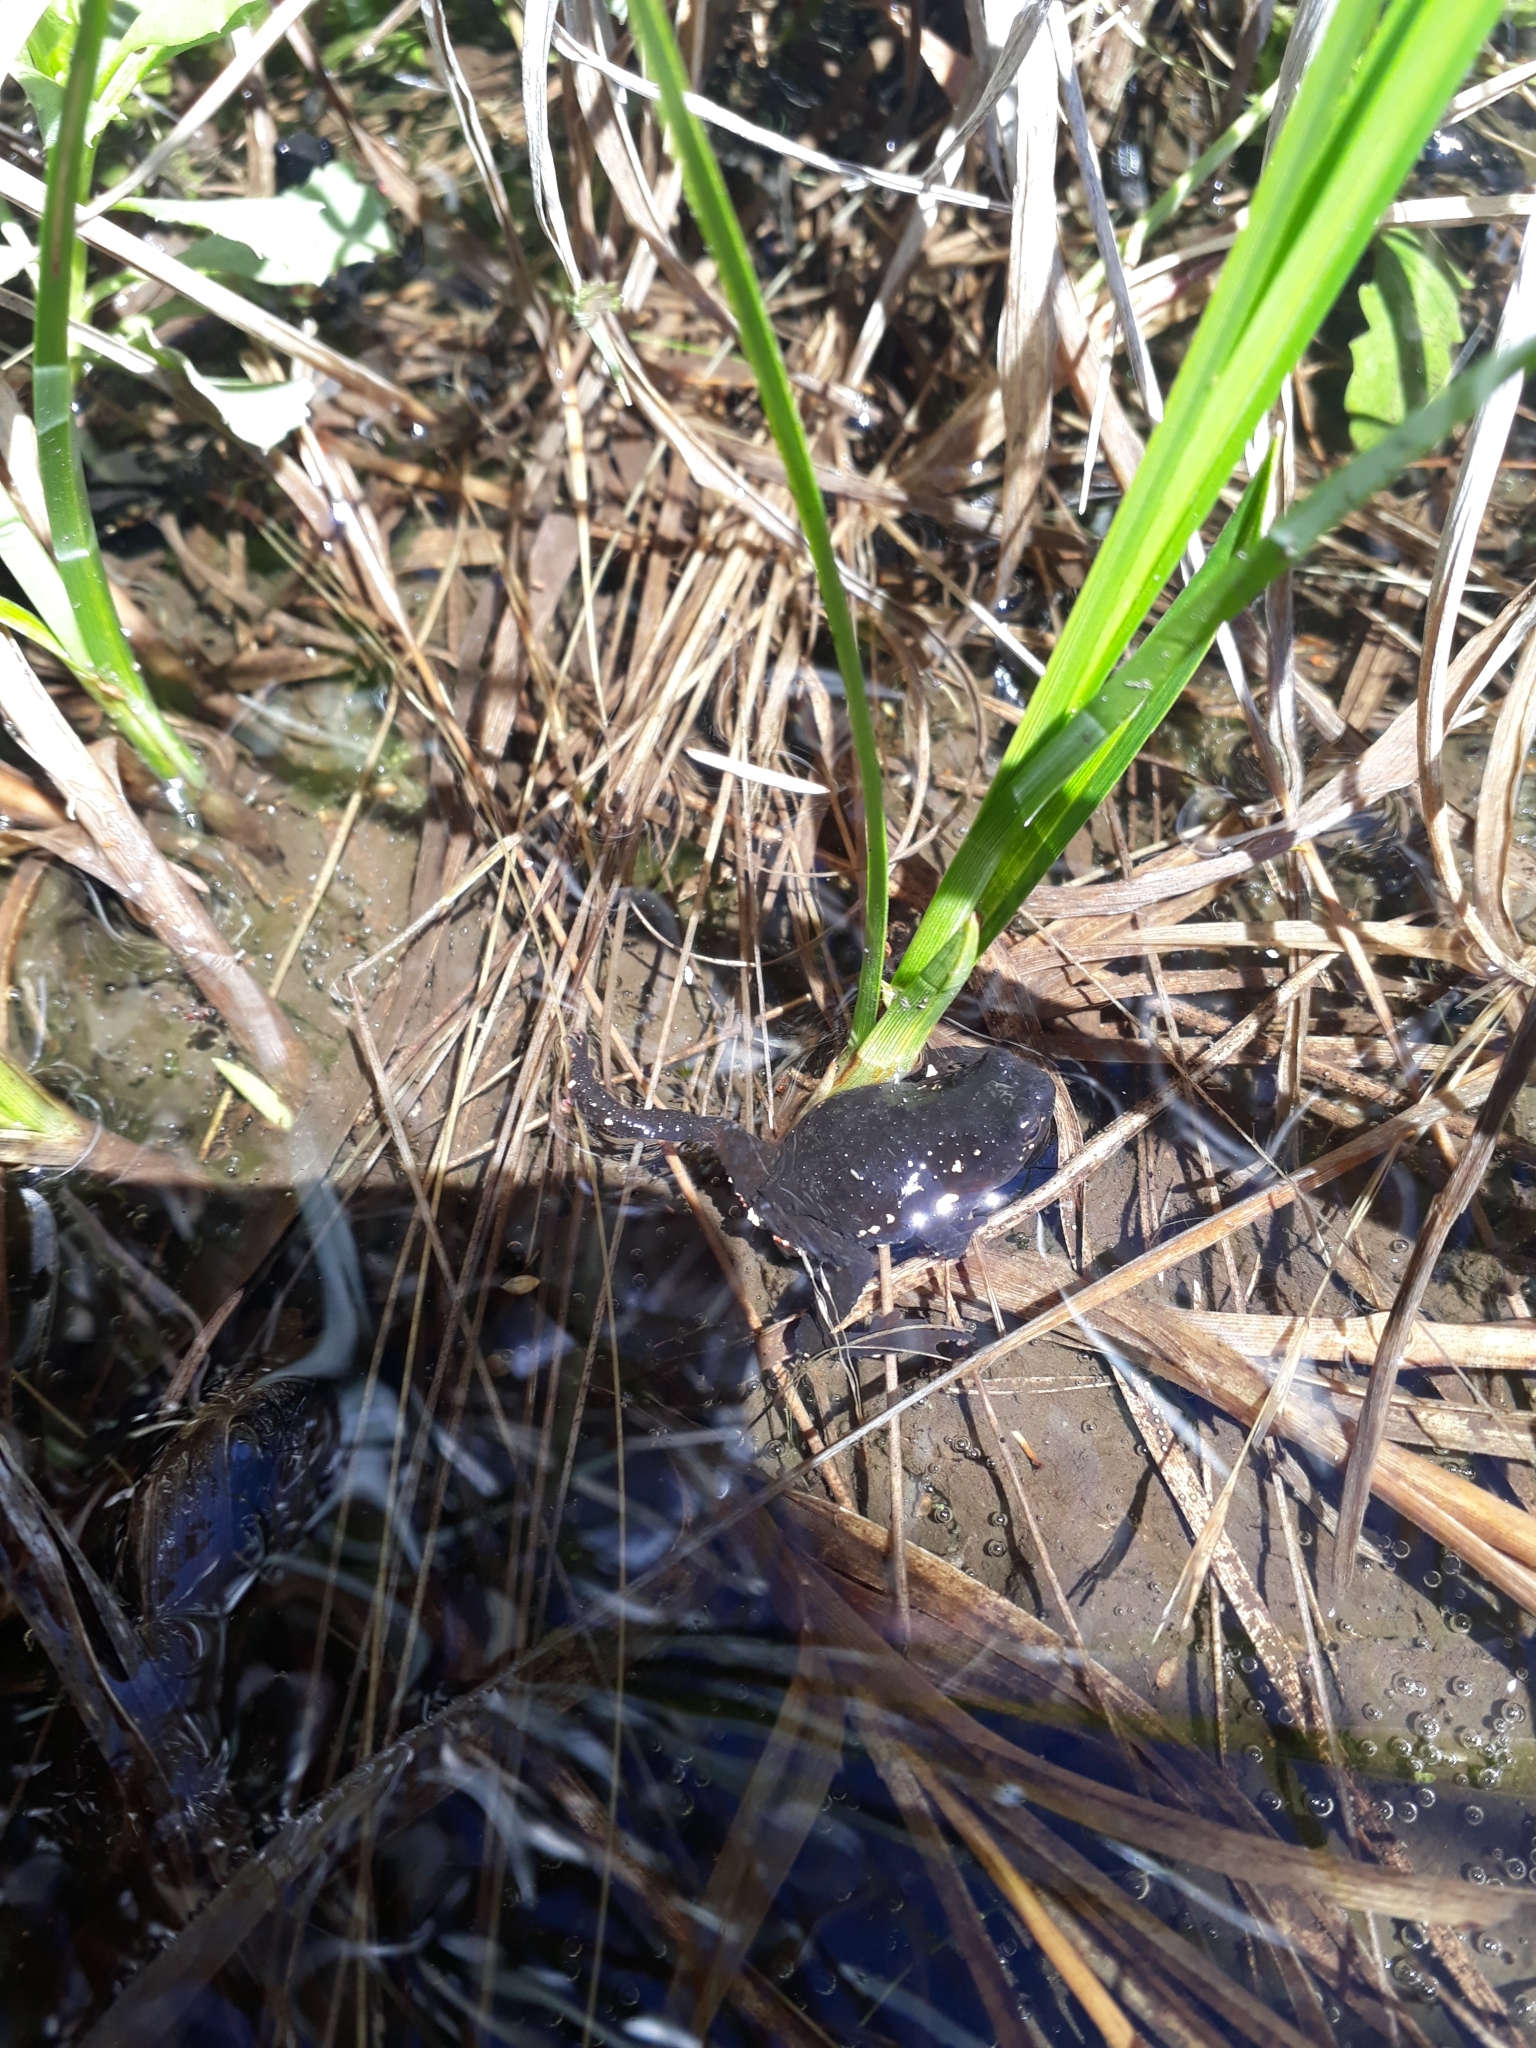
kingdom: Animalia
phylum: Chordata
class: Amphibia
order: Anura
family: Bufonidae
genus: Melanophryniscus
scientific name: Melanophryniscus
